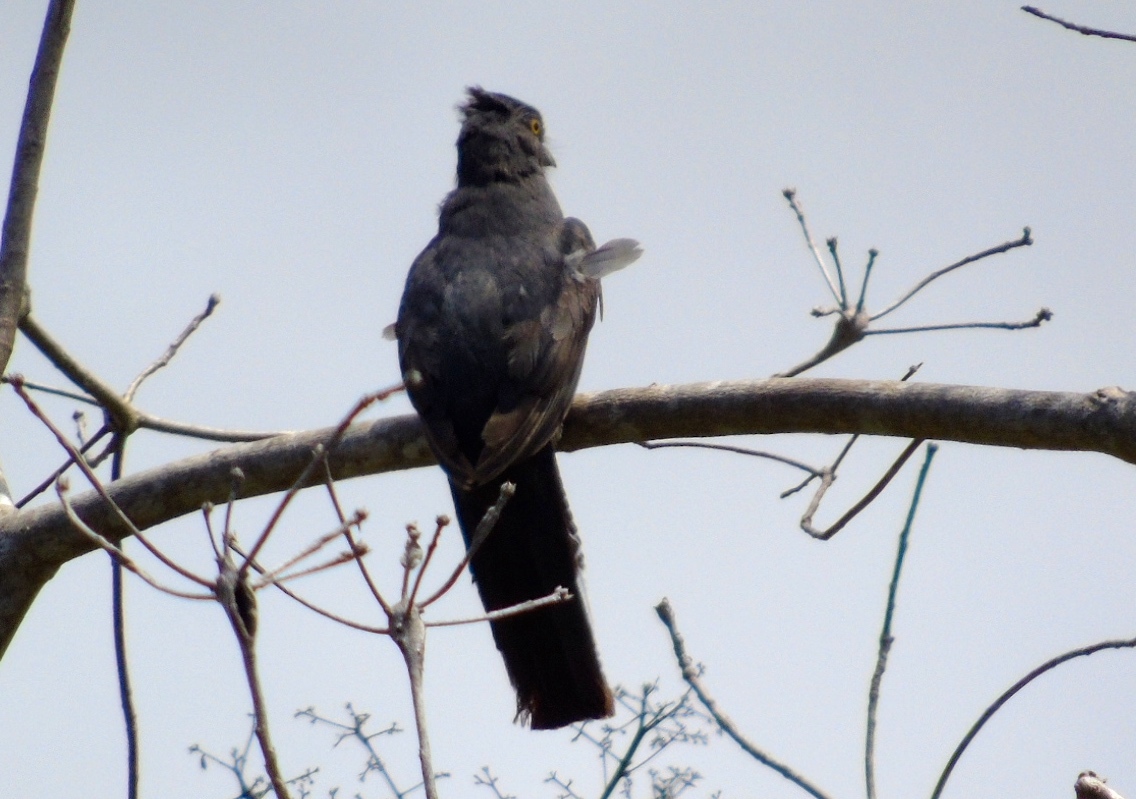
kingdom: Animalia
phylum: Chordata
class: Aves
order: Trogoniformes
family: Trogonidae
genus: Trogon
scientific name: Trogon citreolus
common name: Citreoline trogon
